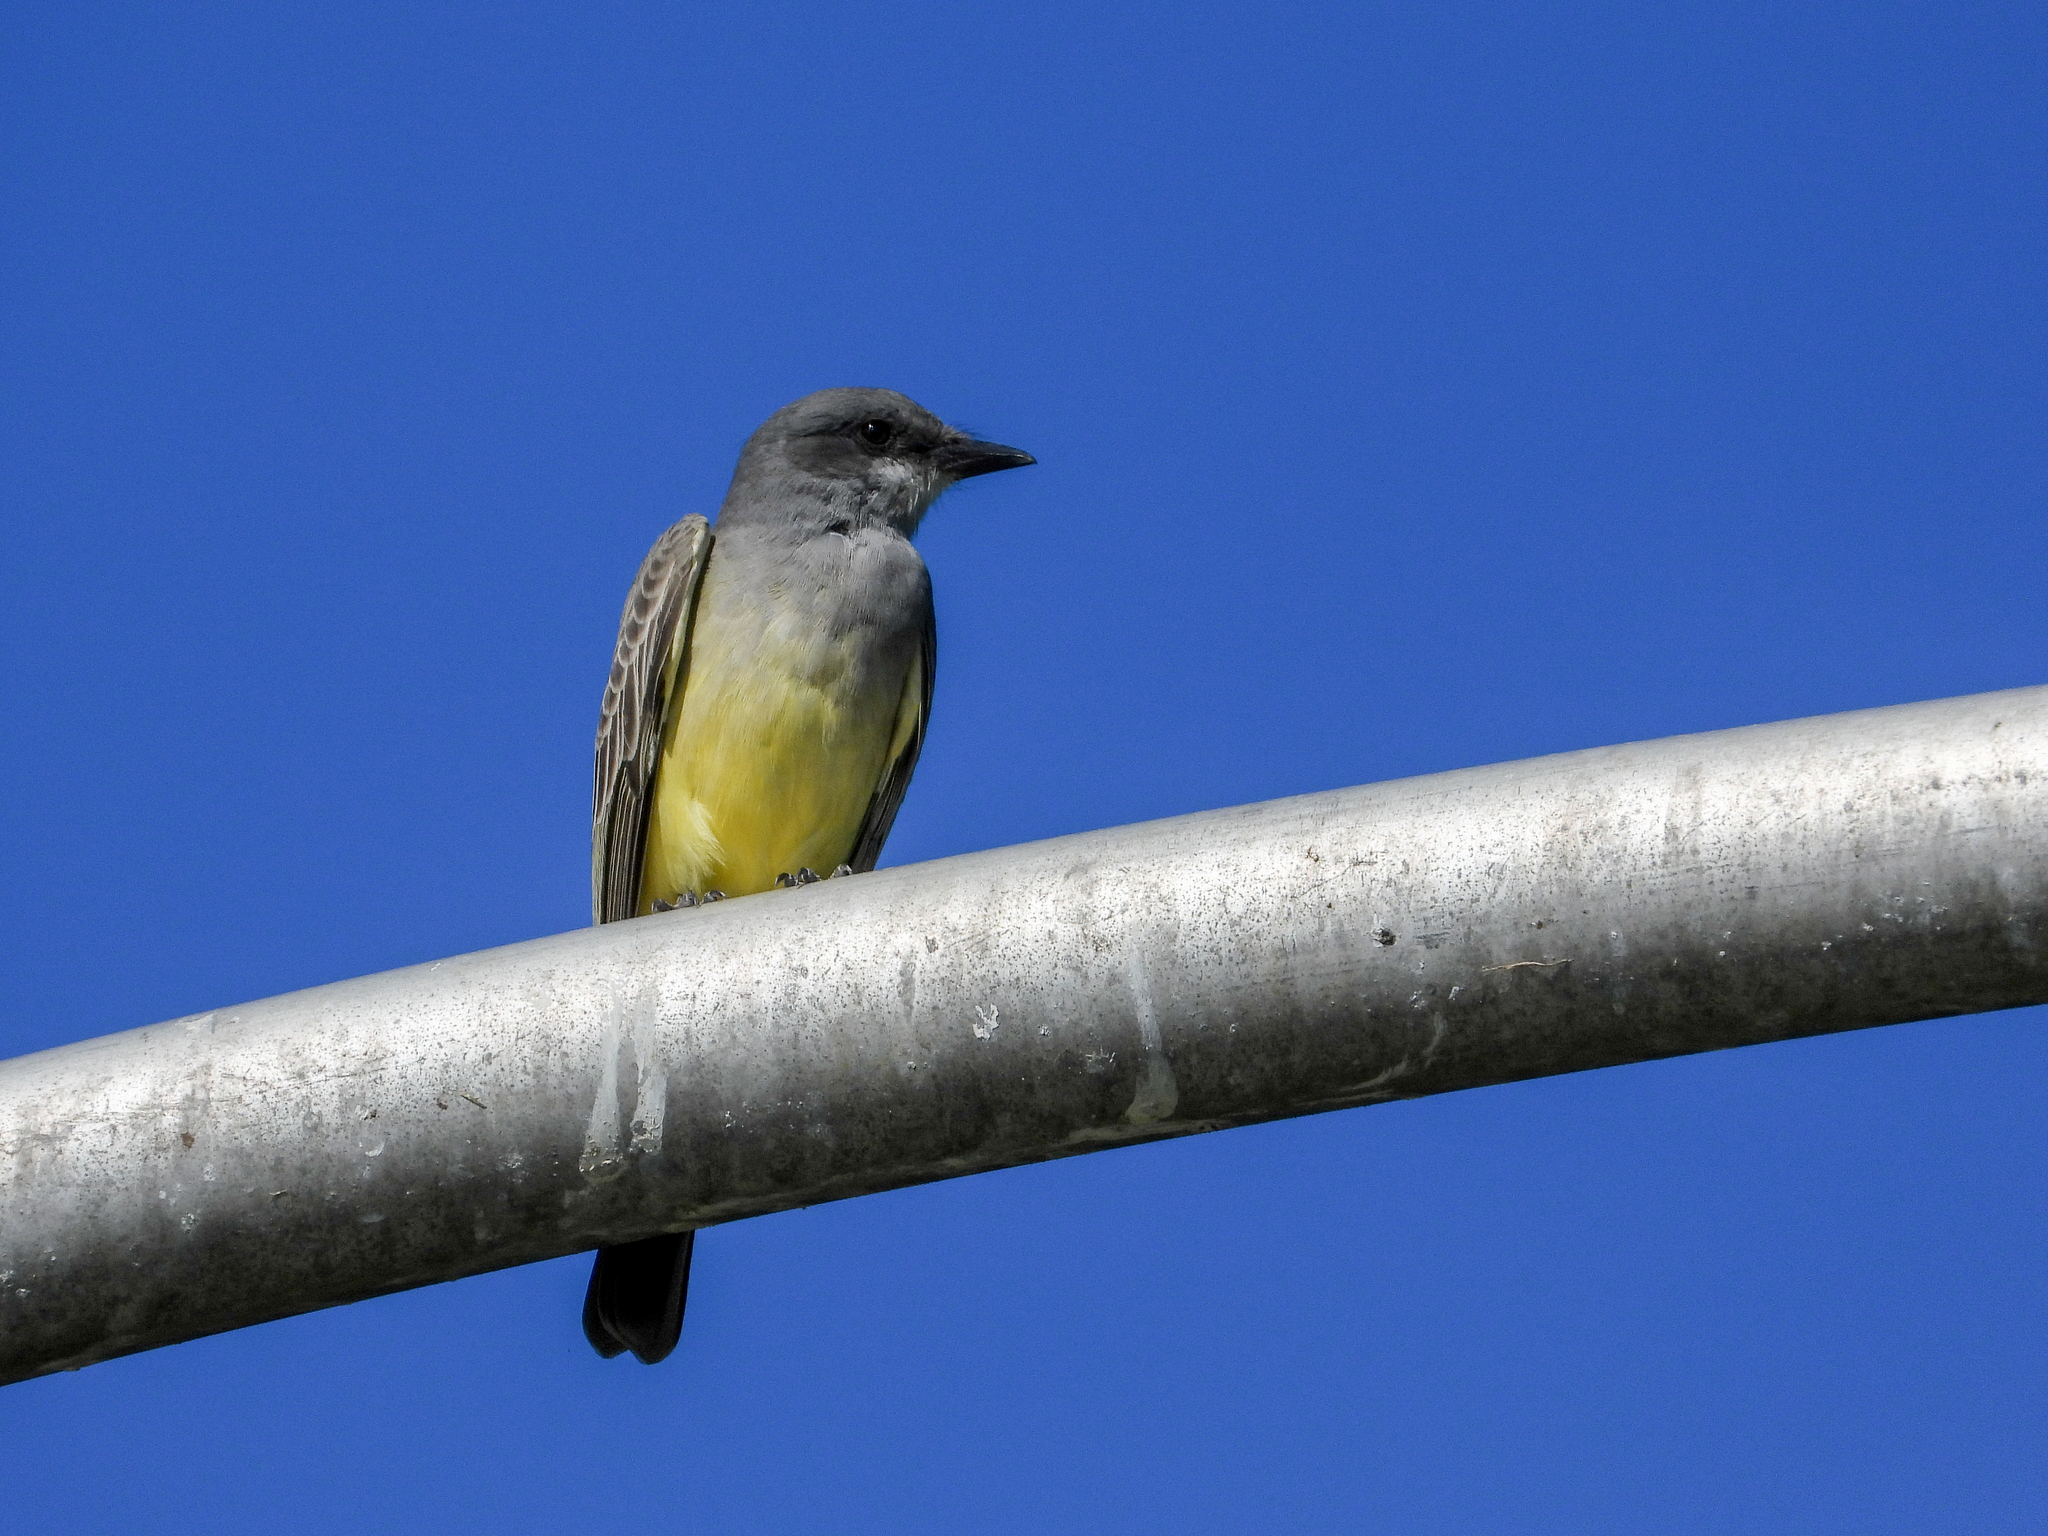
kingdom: Animalia
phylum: Chordata
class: Aves
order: Passeriformes
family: Tyrannidae
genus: Tyrannus
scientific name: Tyrannus vociferans
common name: Cassin's kingbird
